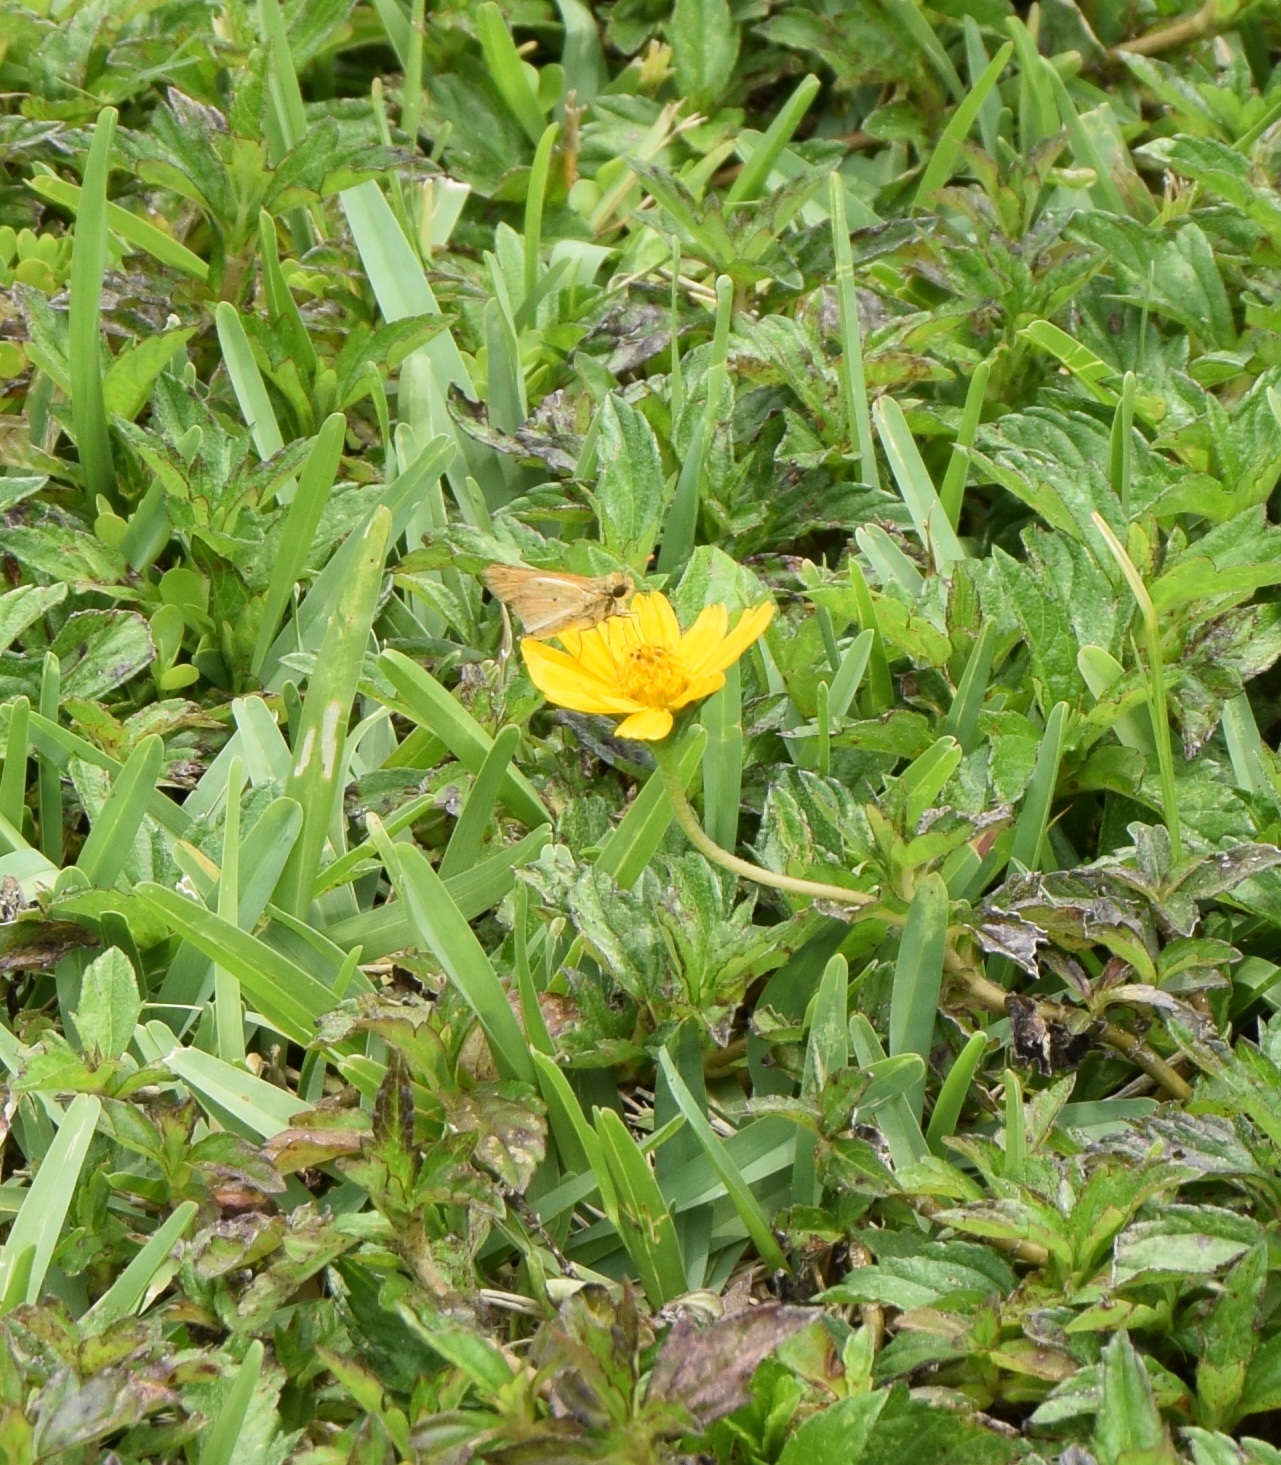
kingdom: Animalia
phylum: Arthropoda
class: Insecta
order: Lepidoptera
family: Hesperiidae
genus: Hylephila
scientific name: Hylephila phyleus
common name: Fiery skipper
